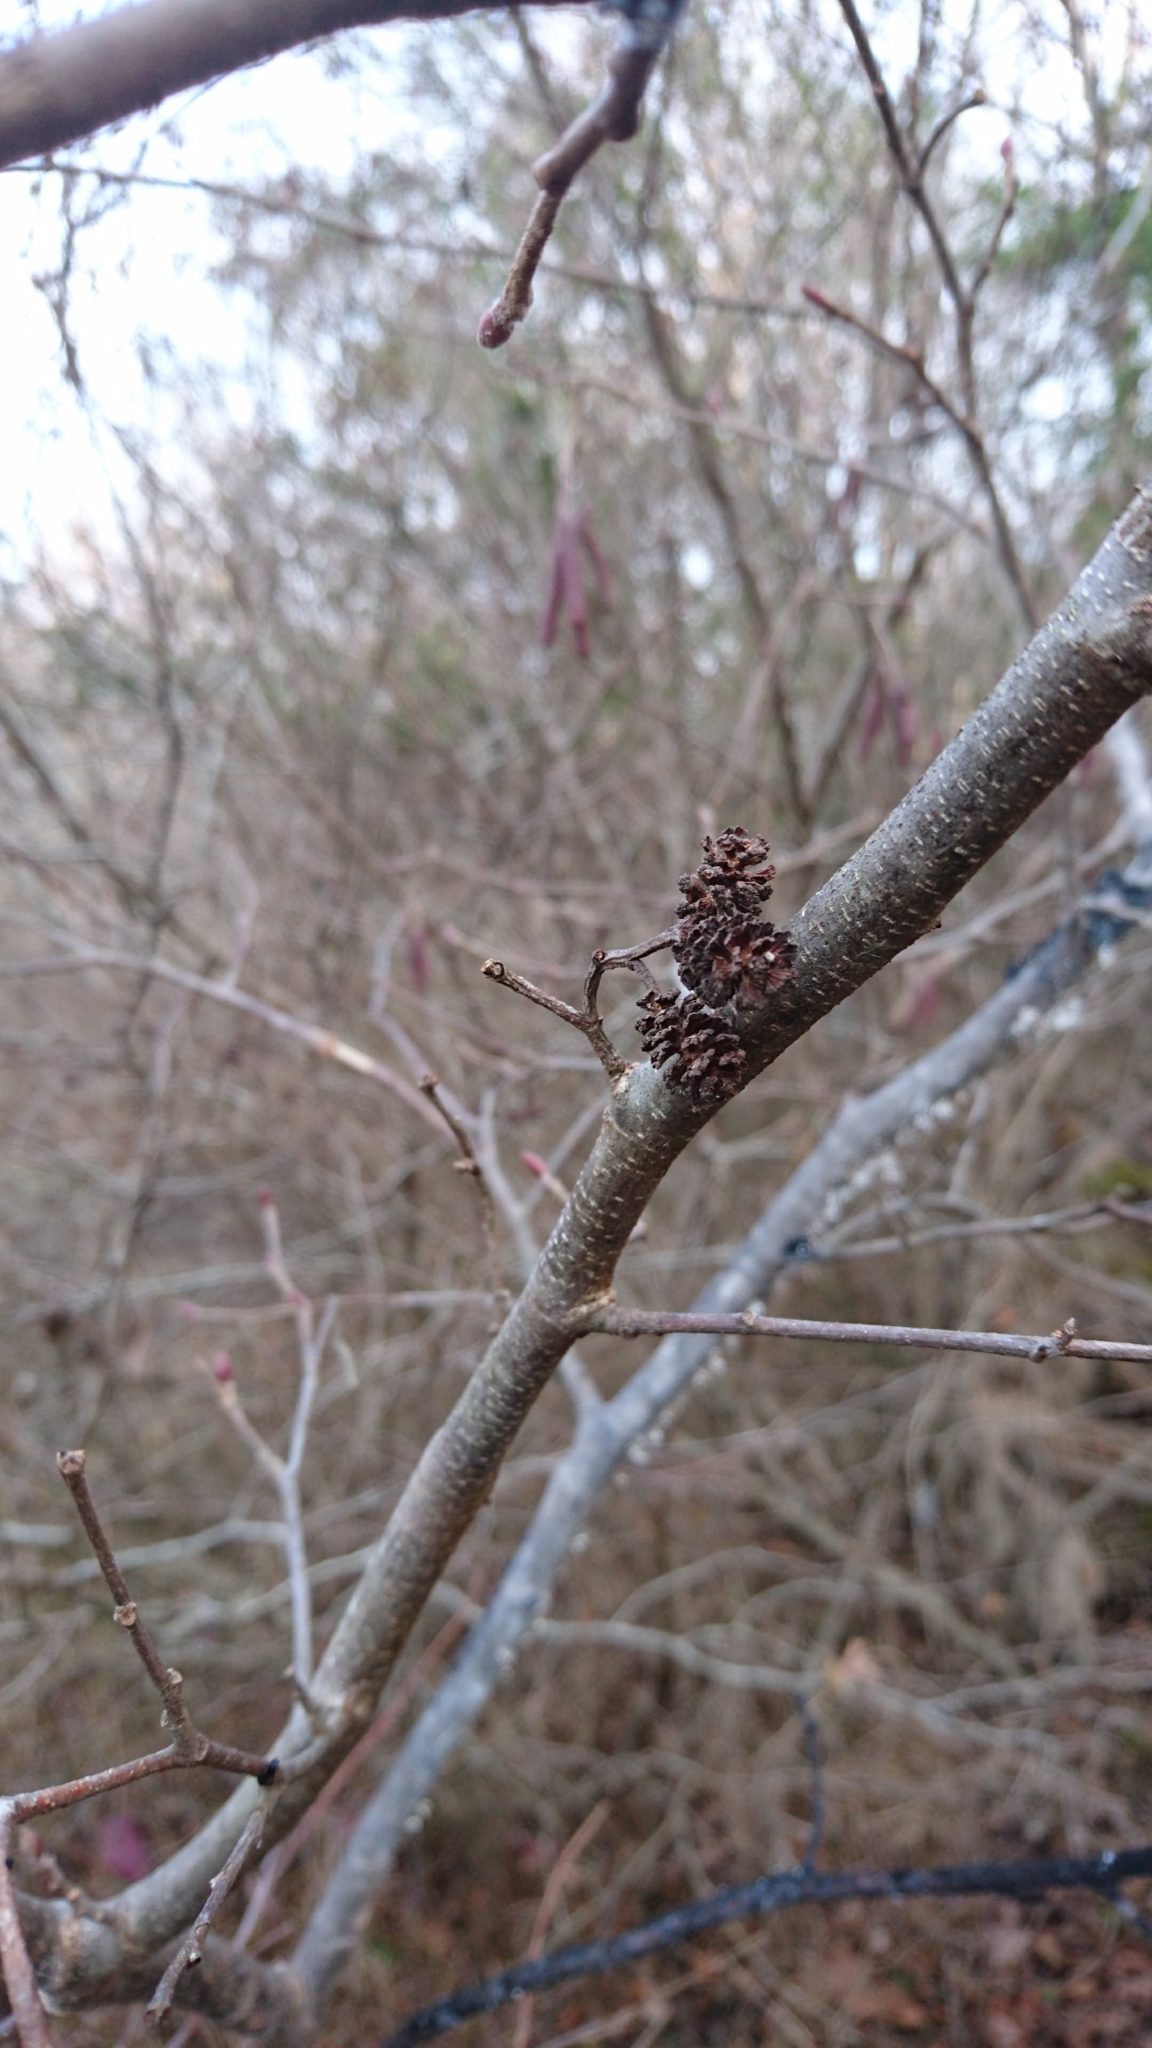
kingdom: Plantae
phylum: Tracheophyta
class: Magnoliopsida
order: Fagales
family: Betulaceae
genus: Alnus
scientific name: Alnus serrulata
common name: Hazel alder
